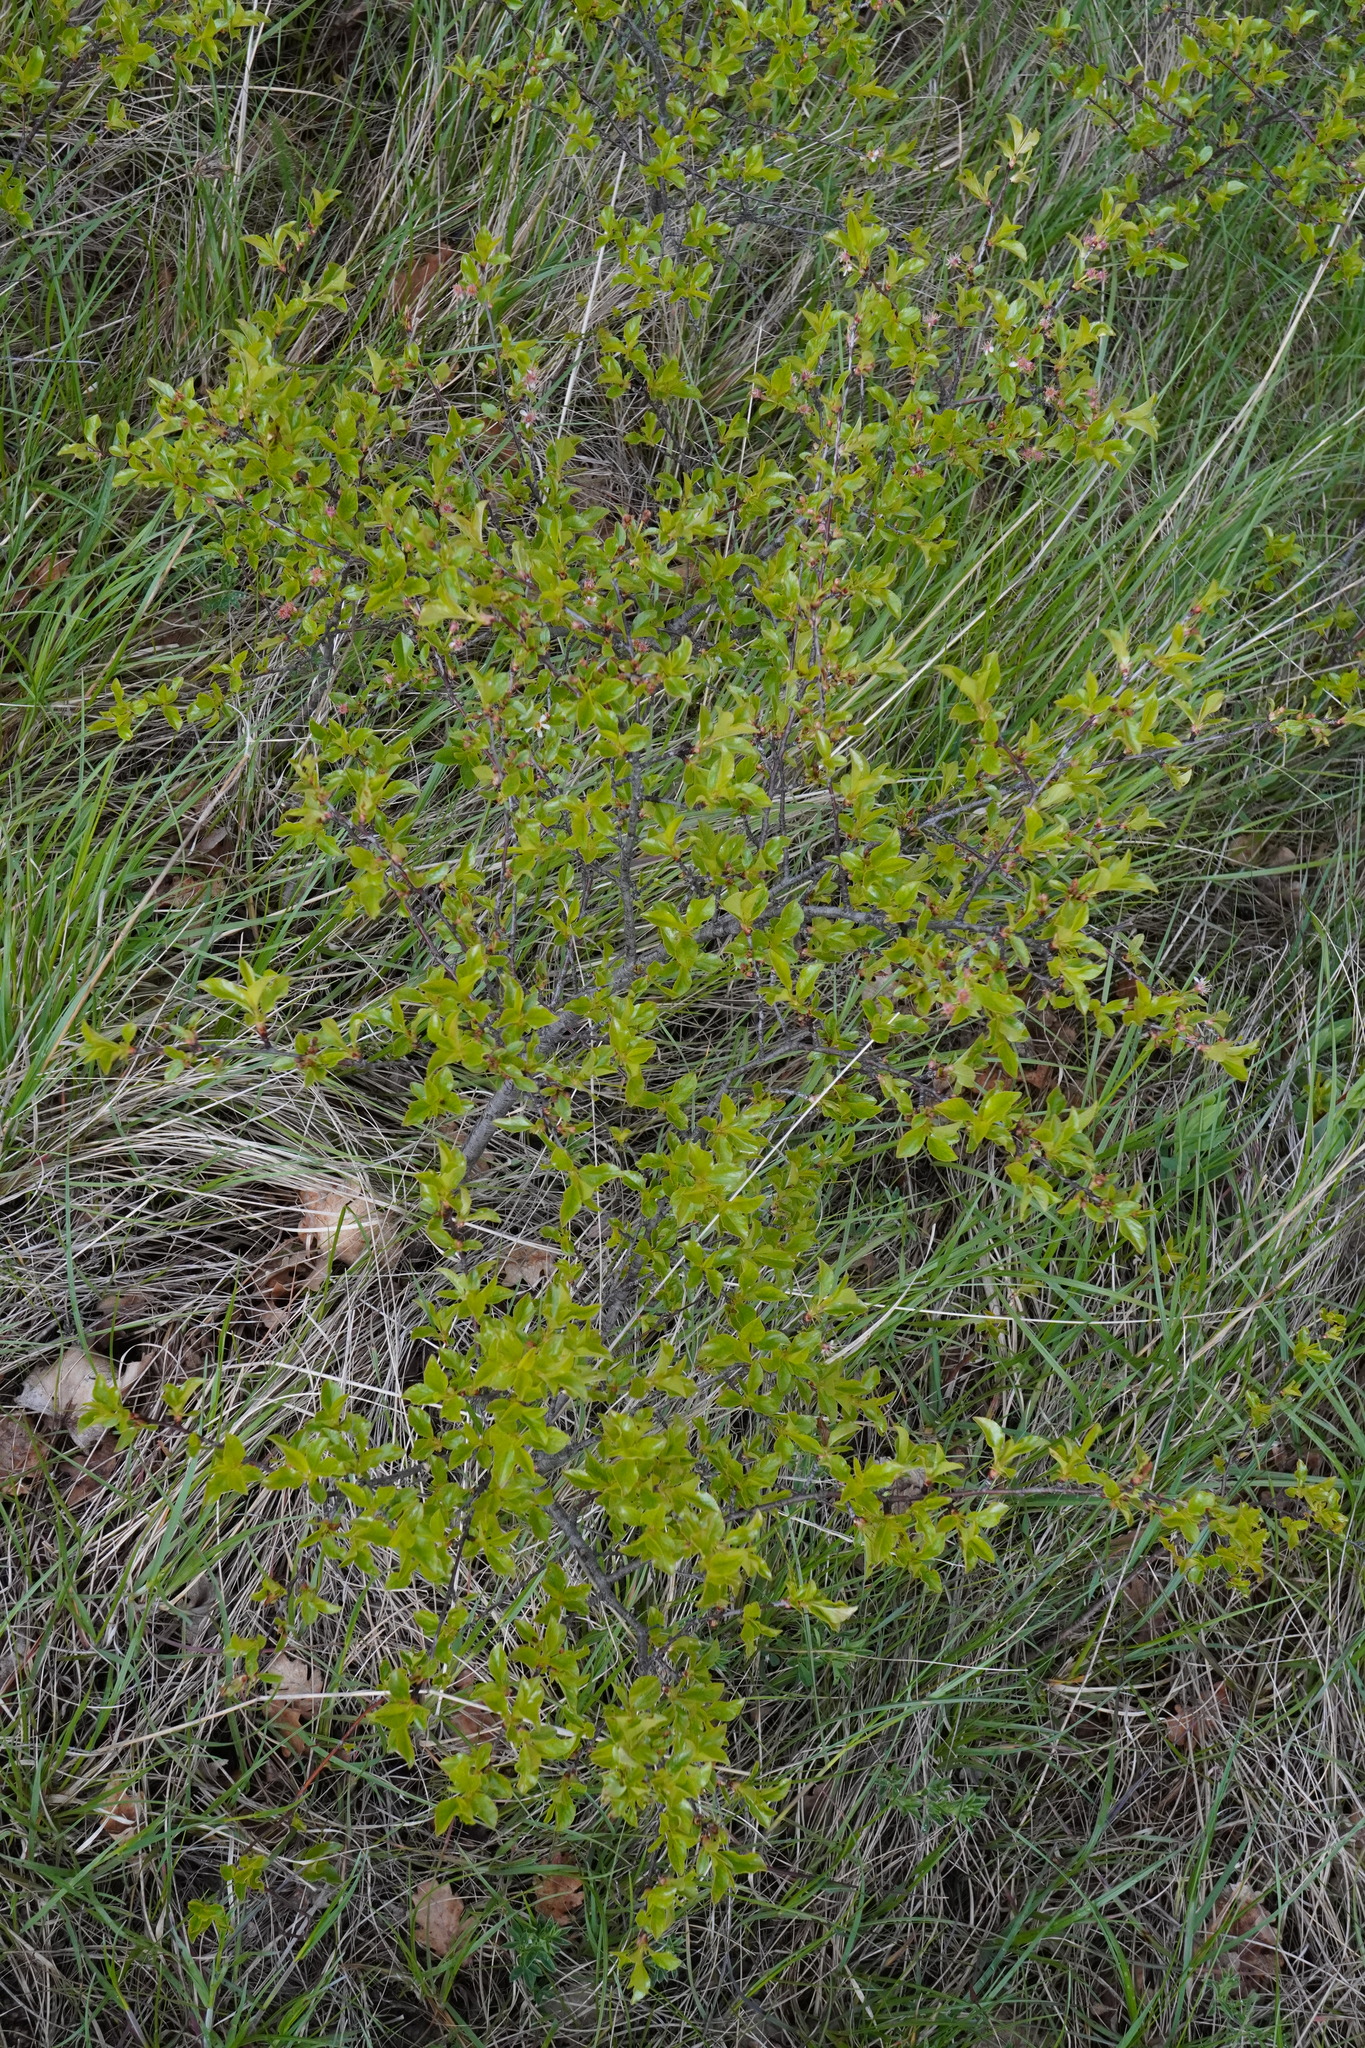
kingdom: Plantae
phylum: Tracheophyta
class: Magnoliopsida
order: Rosales
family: Rosaceae
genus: Prunus
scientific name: Prunus fruticosa
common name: European dwarf cherry
